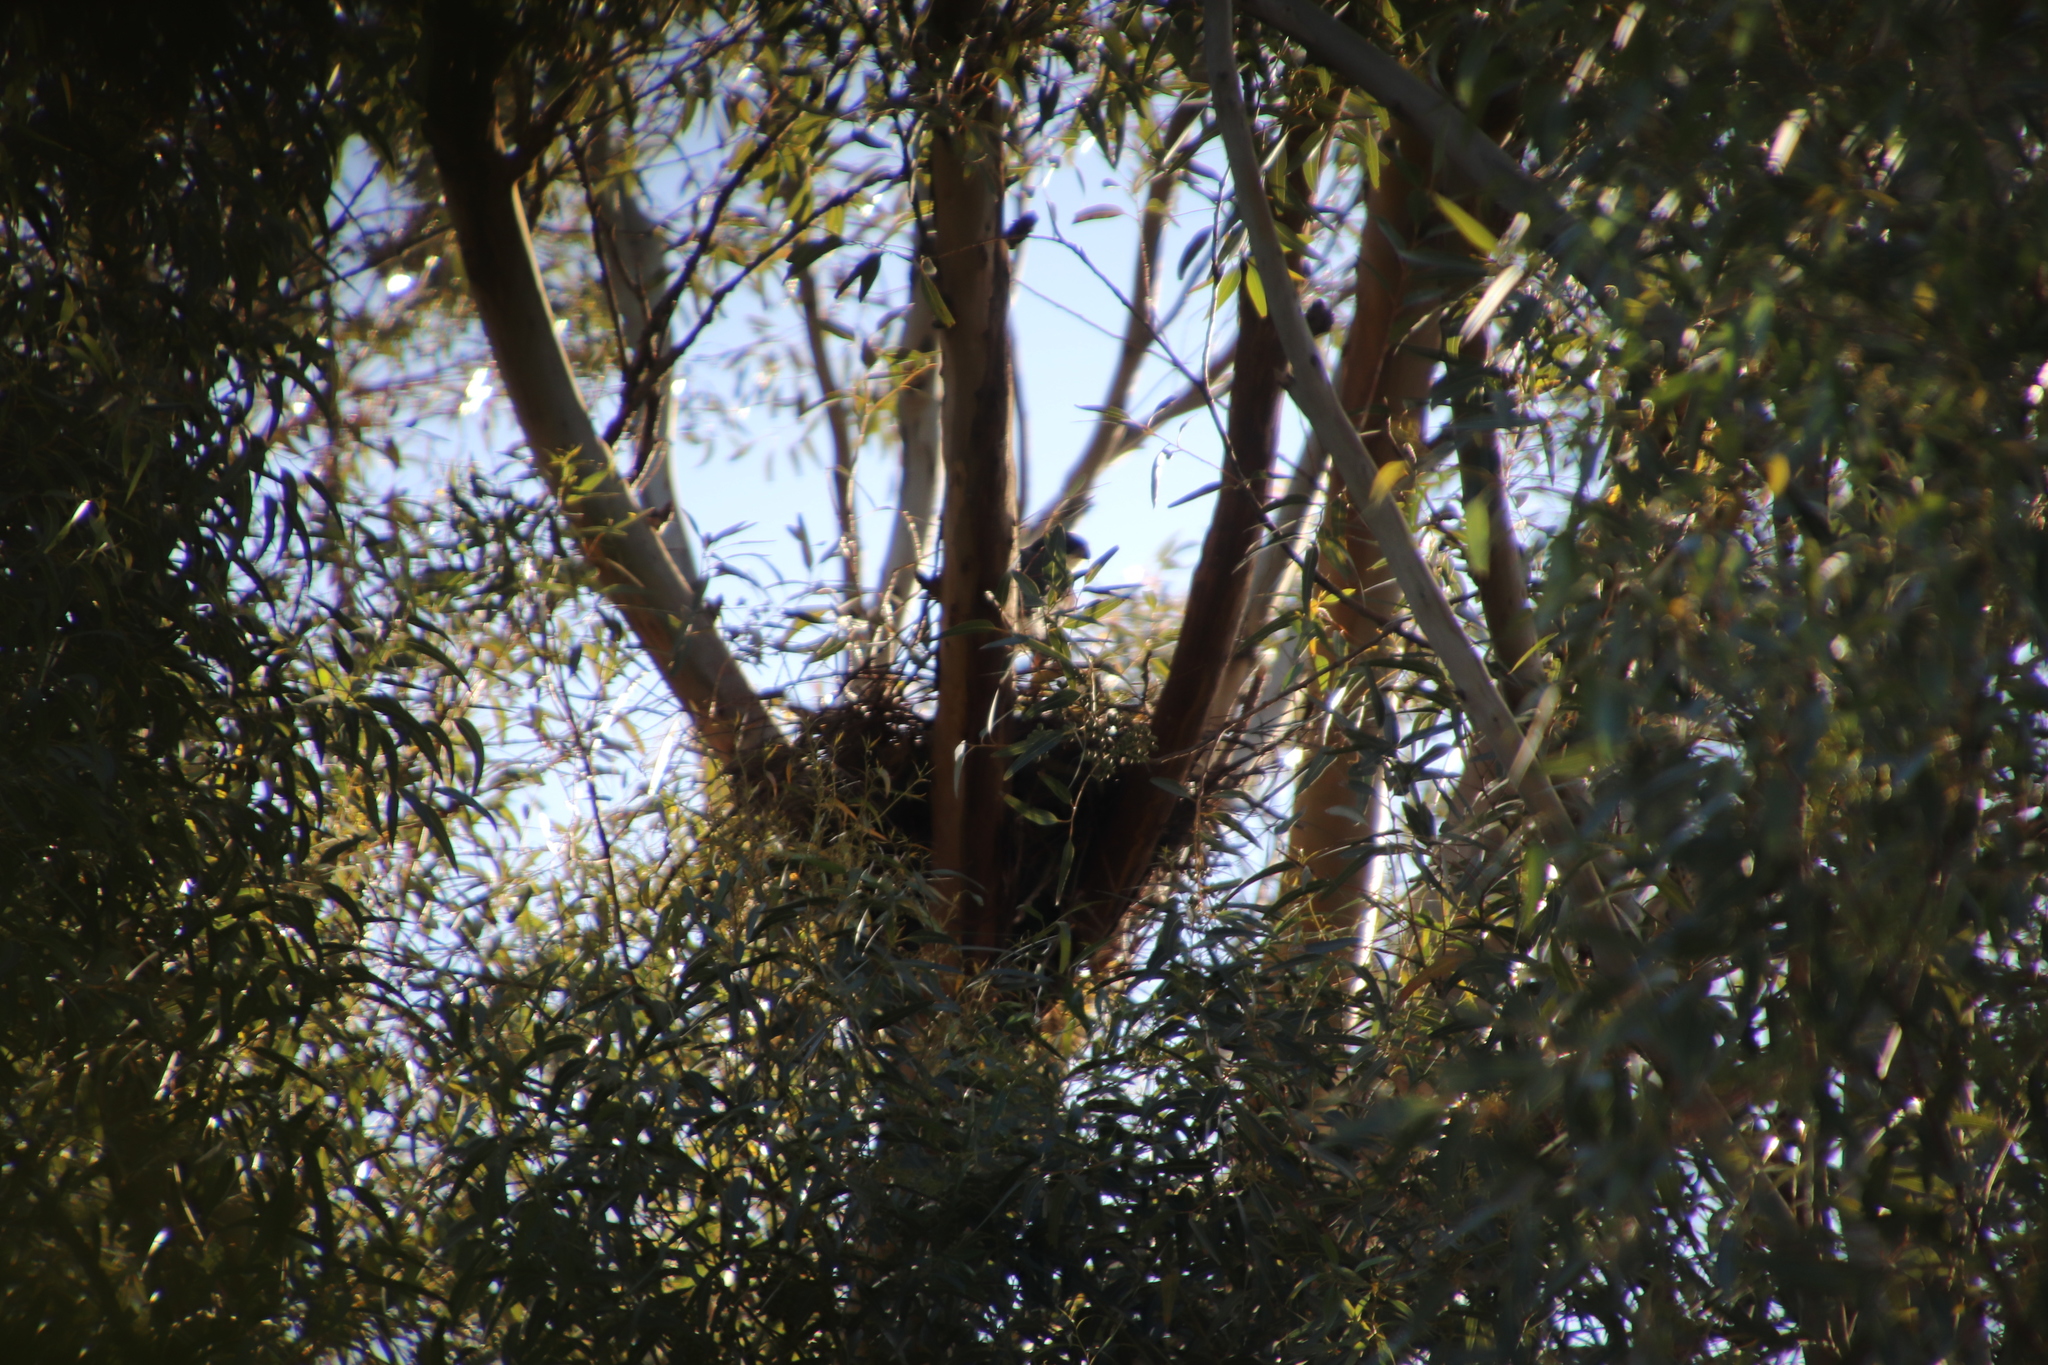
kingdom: Animalia
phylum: Chordata
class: Aves
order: Accipitriformes
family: Accipitridae
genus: Accipiter
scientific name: Accipiter melanoleucus
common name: Black sparrowhawk
